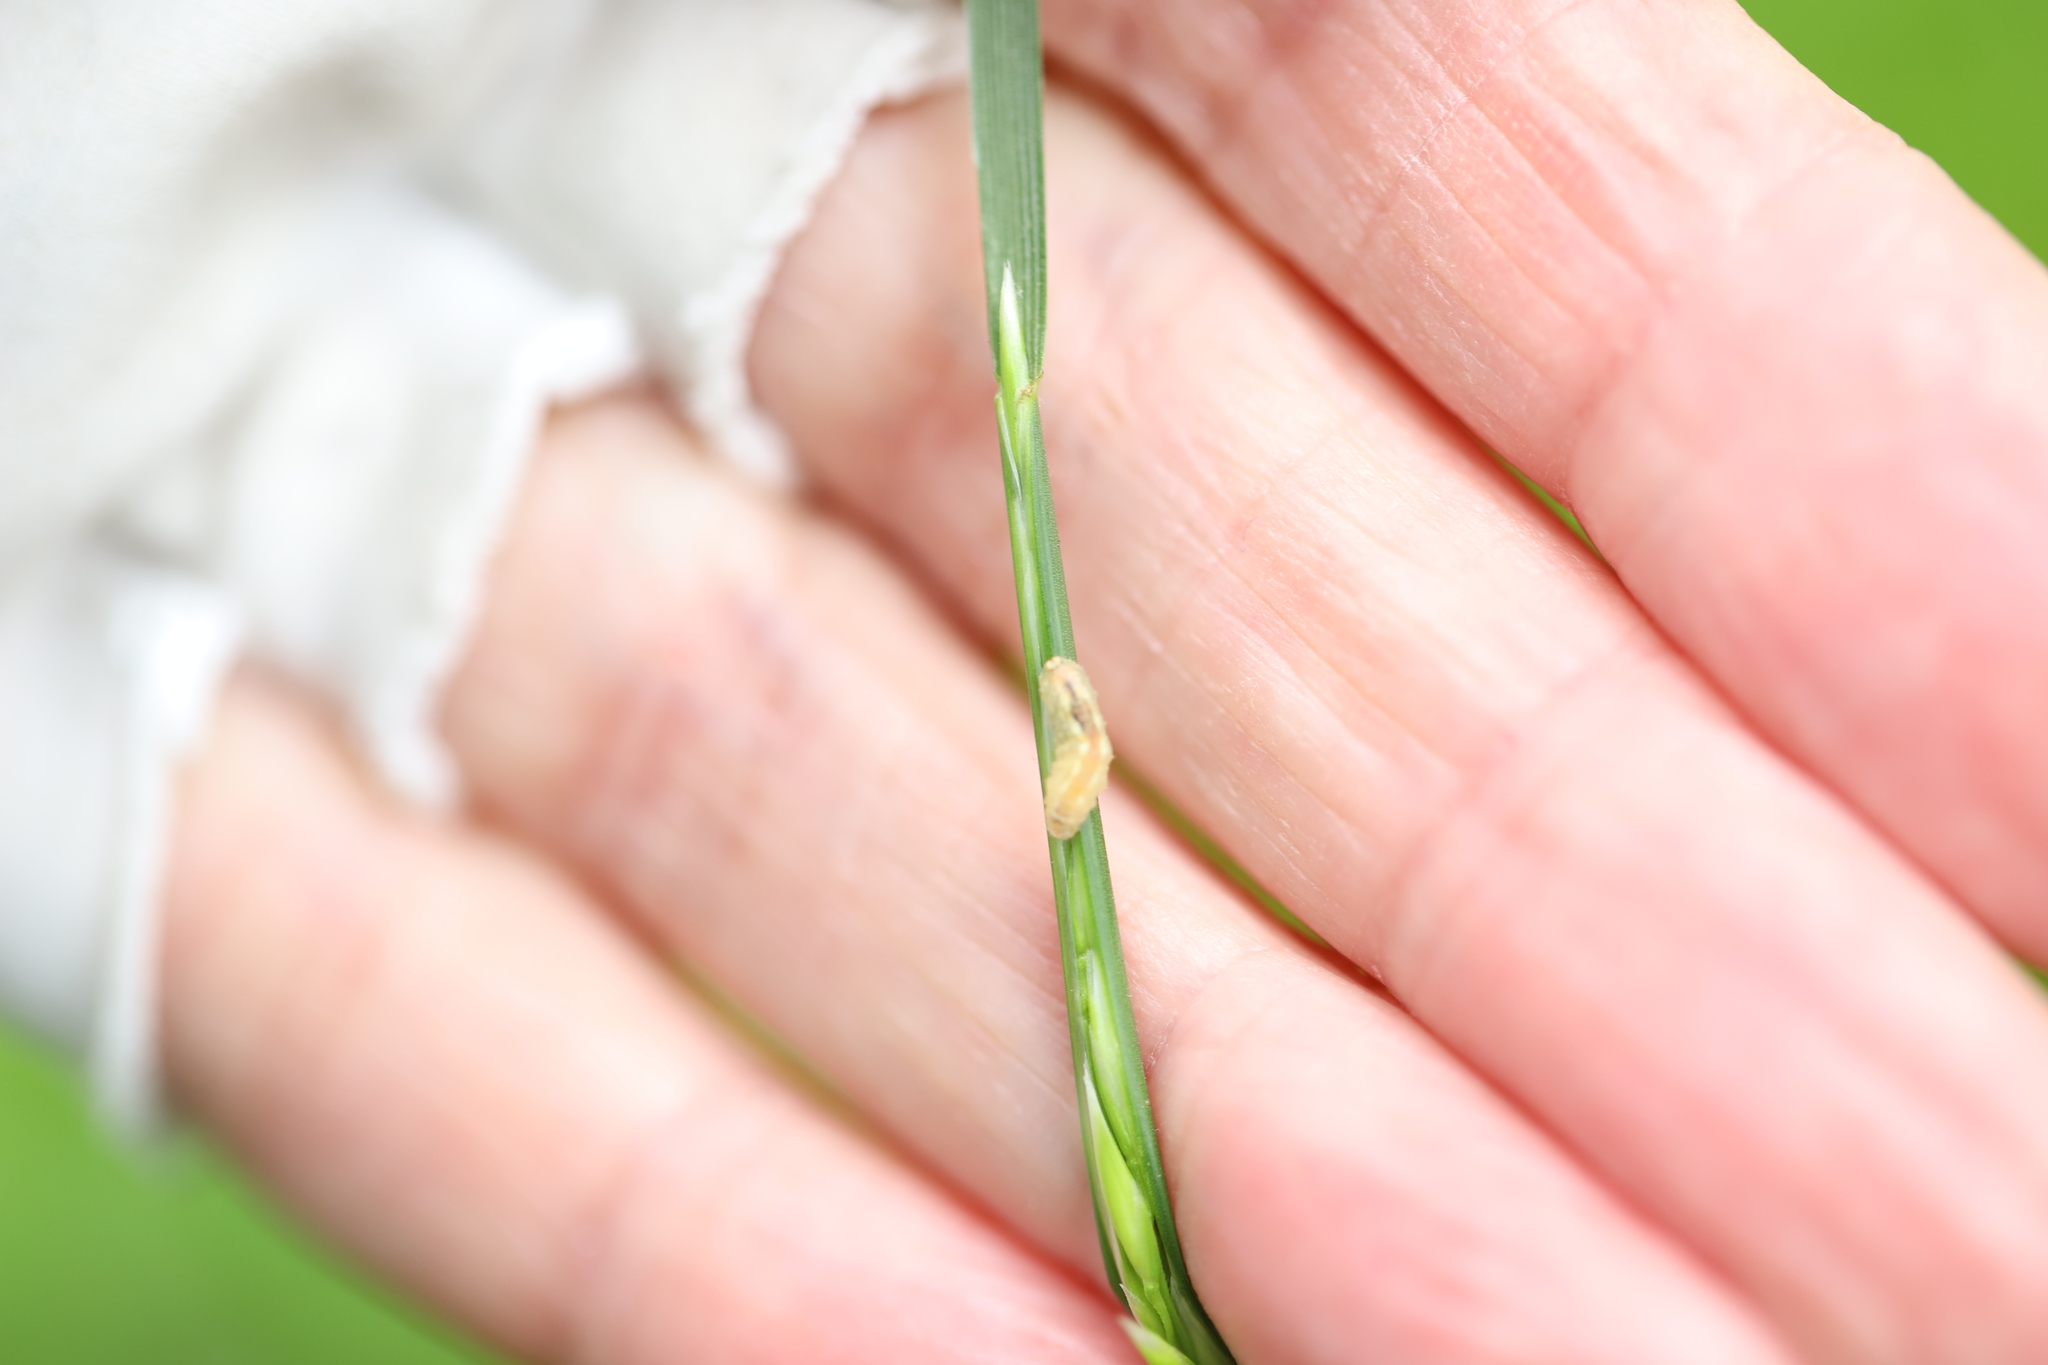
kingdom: Animalia
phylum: Arthropoda
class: Insecta
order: Diptera
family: Syrphidae
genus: Syrphus
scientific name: Syrphus
